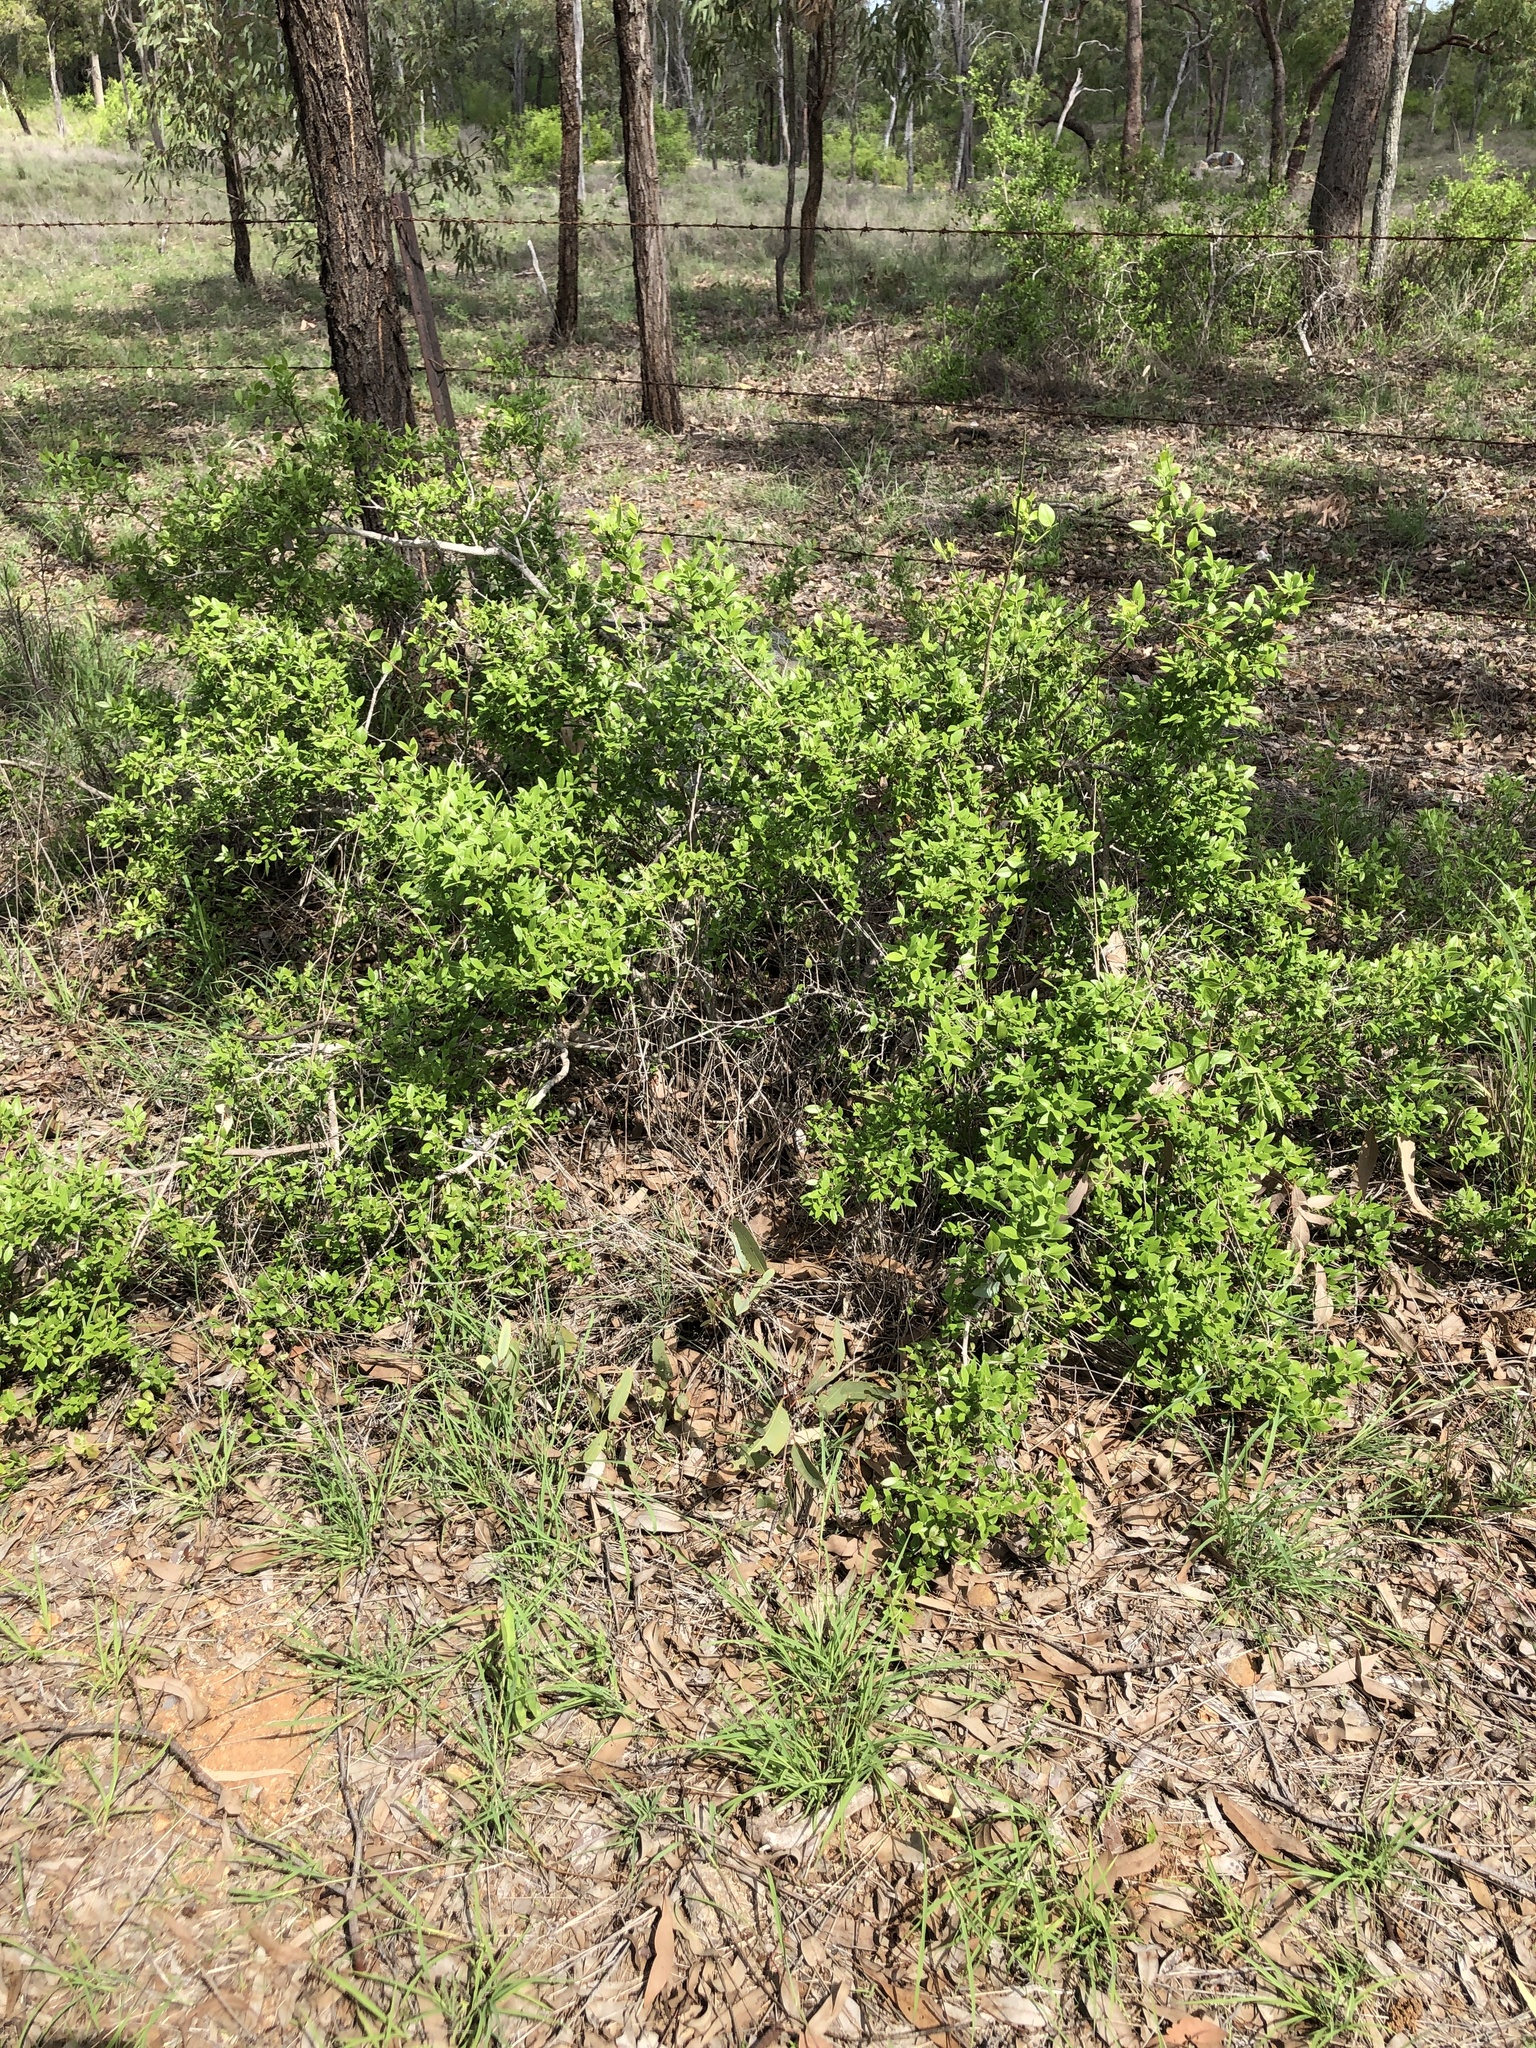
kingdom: Plantae
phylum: Tracheophyta
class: Magnoliopsida
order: Gentianales
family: Apocynaceae
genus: Carissa
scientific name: Carissa ovata
